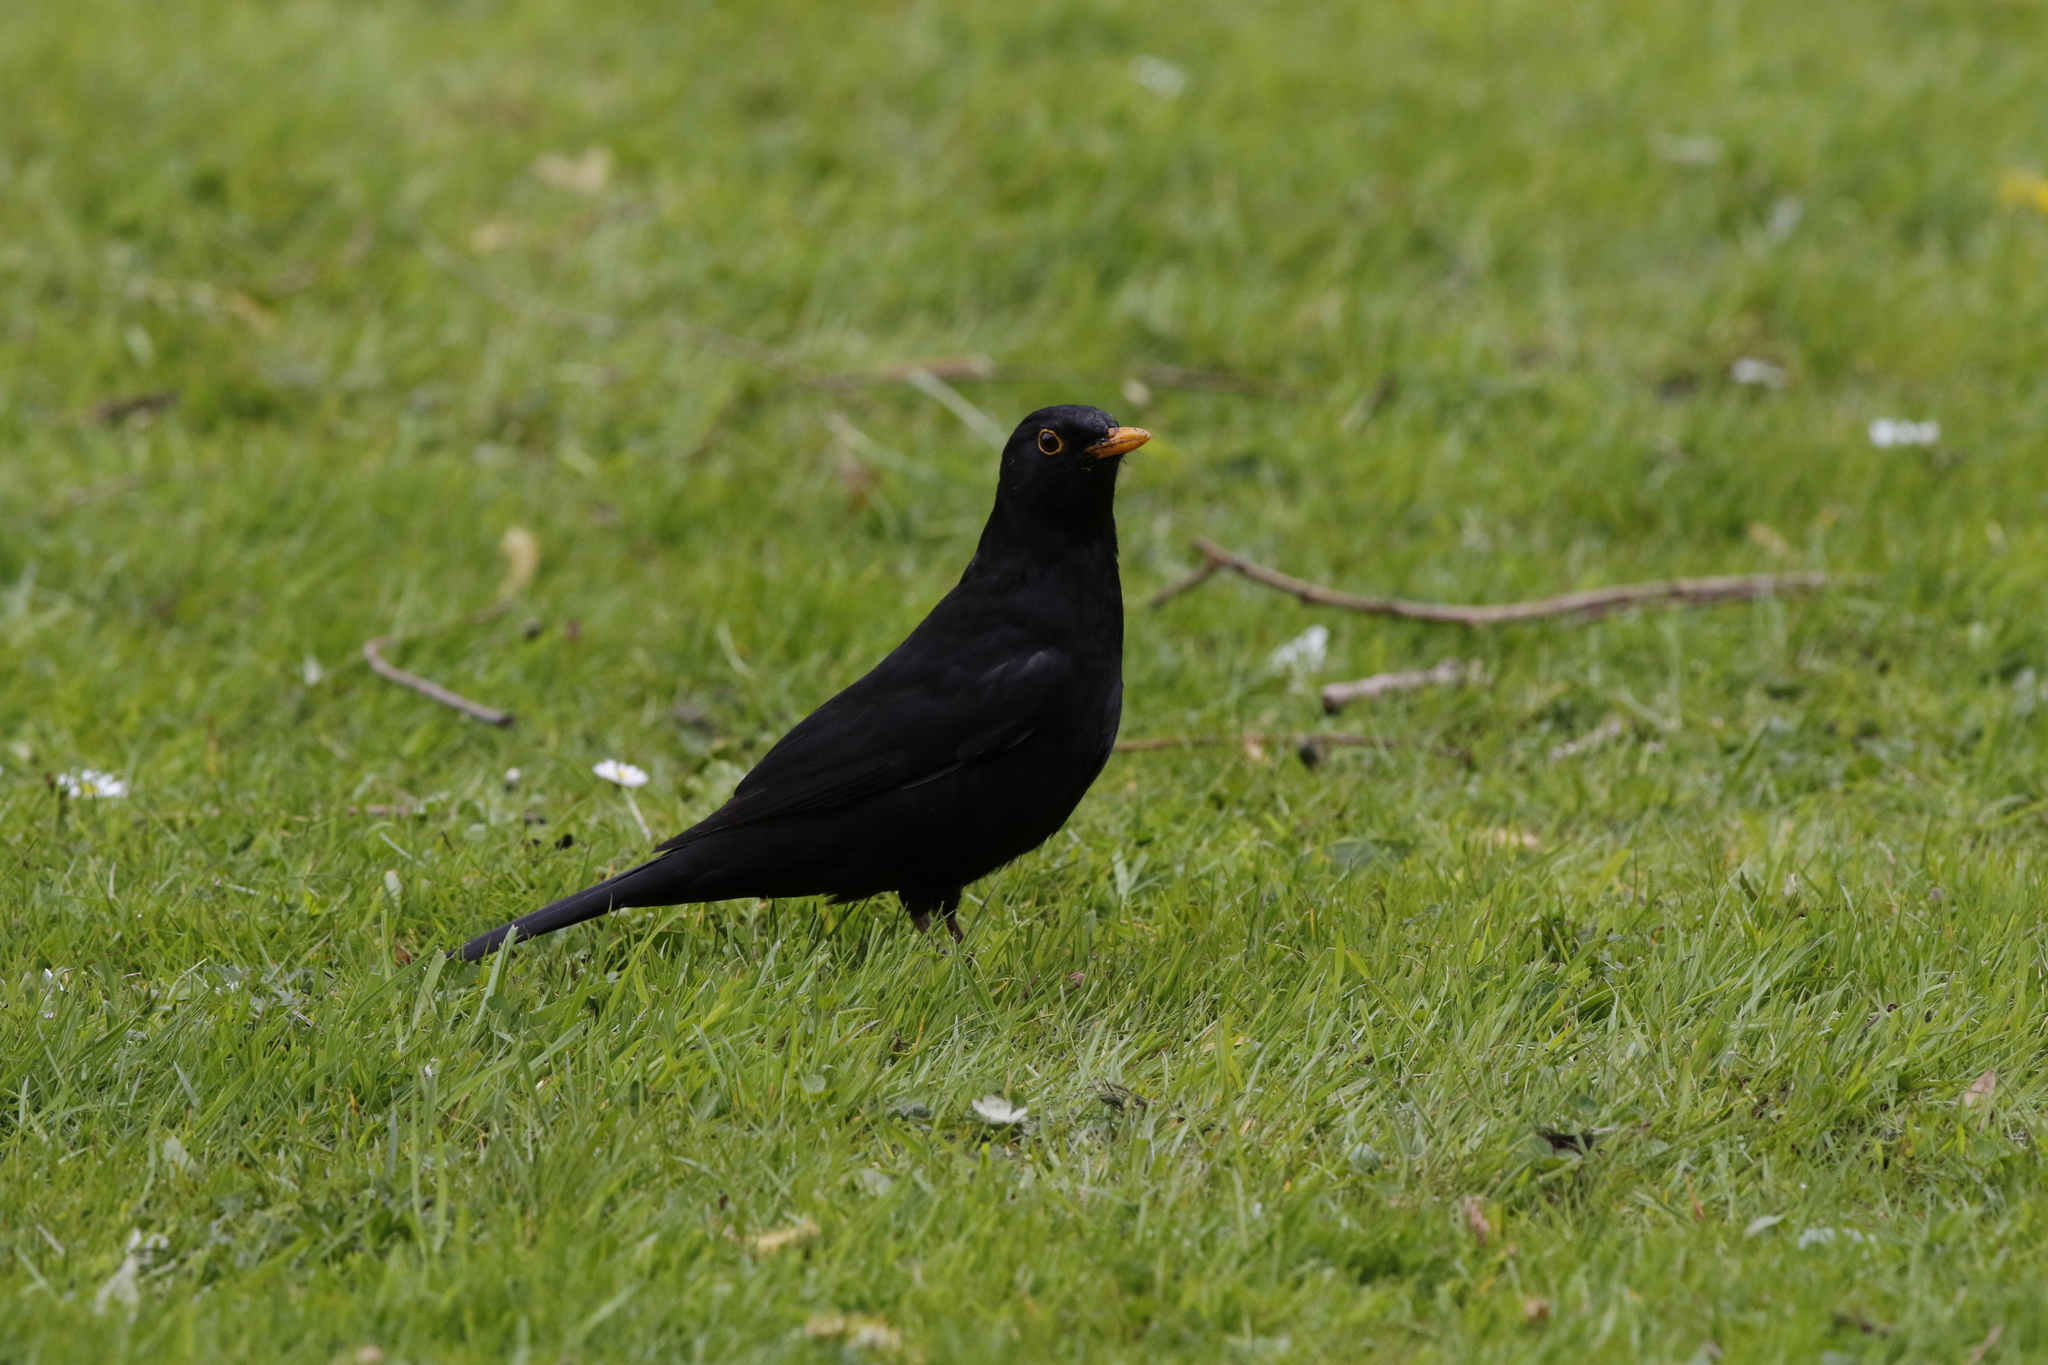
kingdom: Animalia
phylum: Chordata
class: Aves
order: Passeriformes
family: Turdidae
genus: Turdus
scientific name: Turdus merula
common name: Common blackbird
